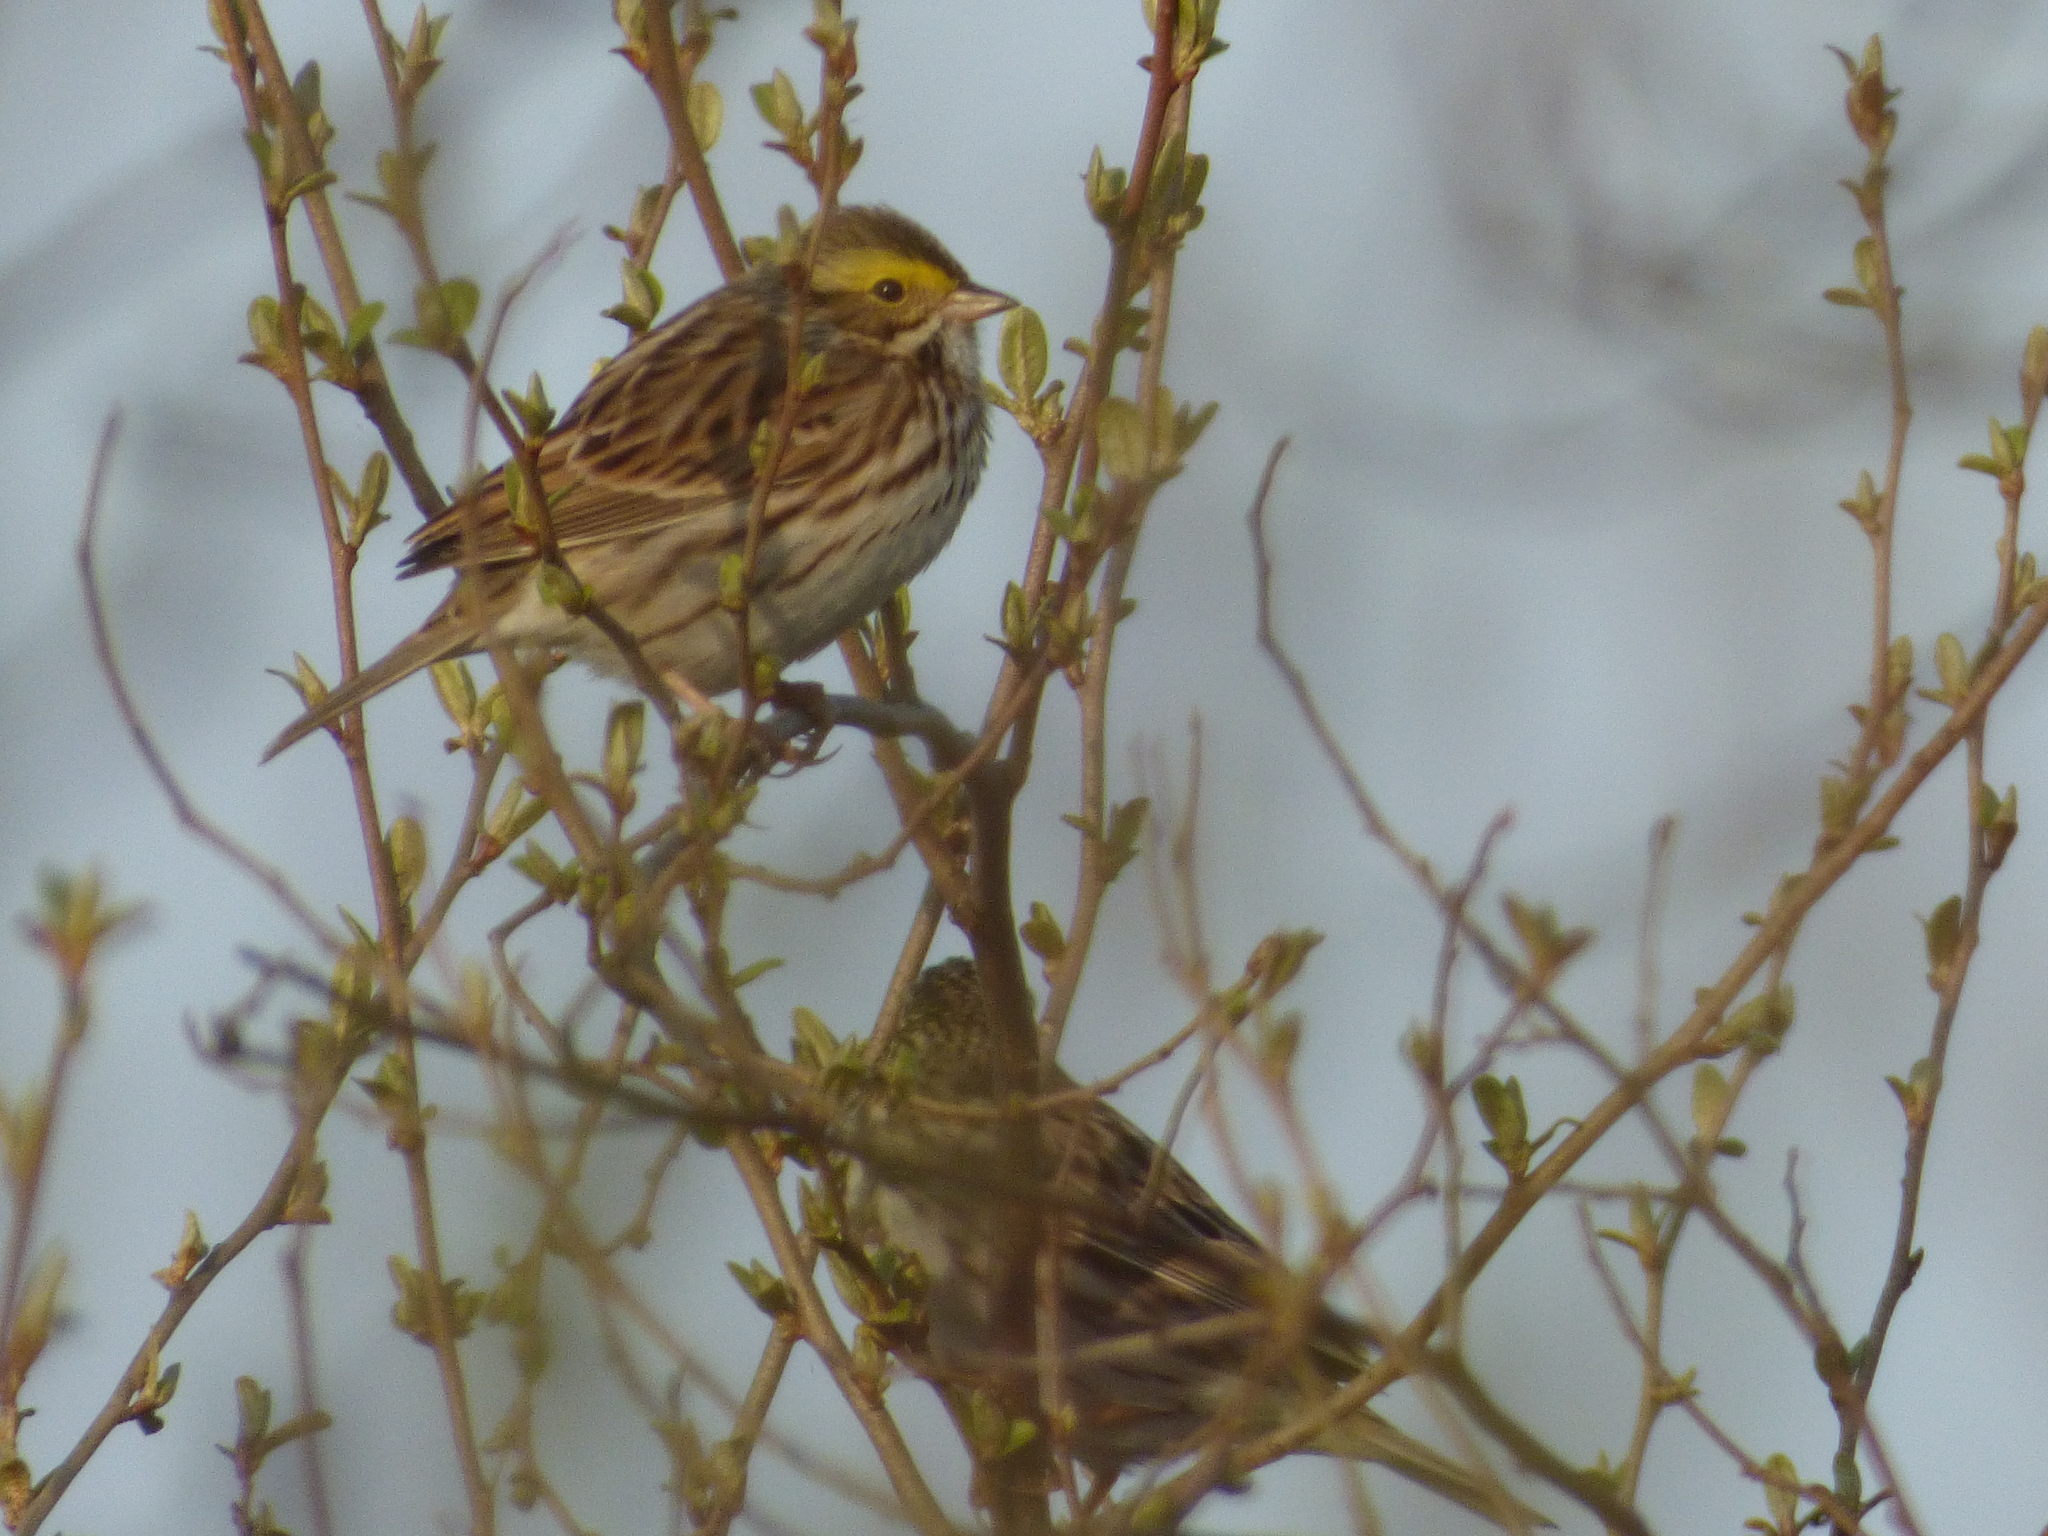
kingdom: Animalia
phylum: Chordata
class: Aves
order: Passeriformes
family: Passerellidae
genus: Passerculus
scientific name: Passerculus sandwichensis
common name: Savannah sparrow
